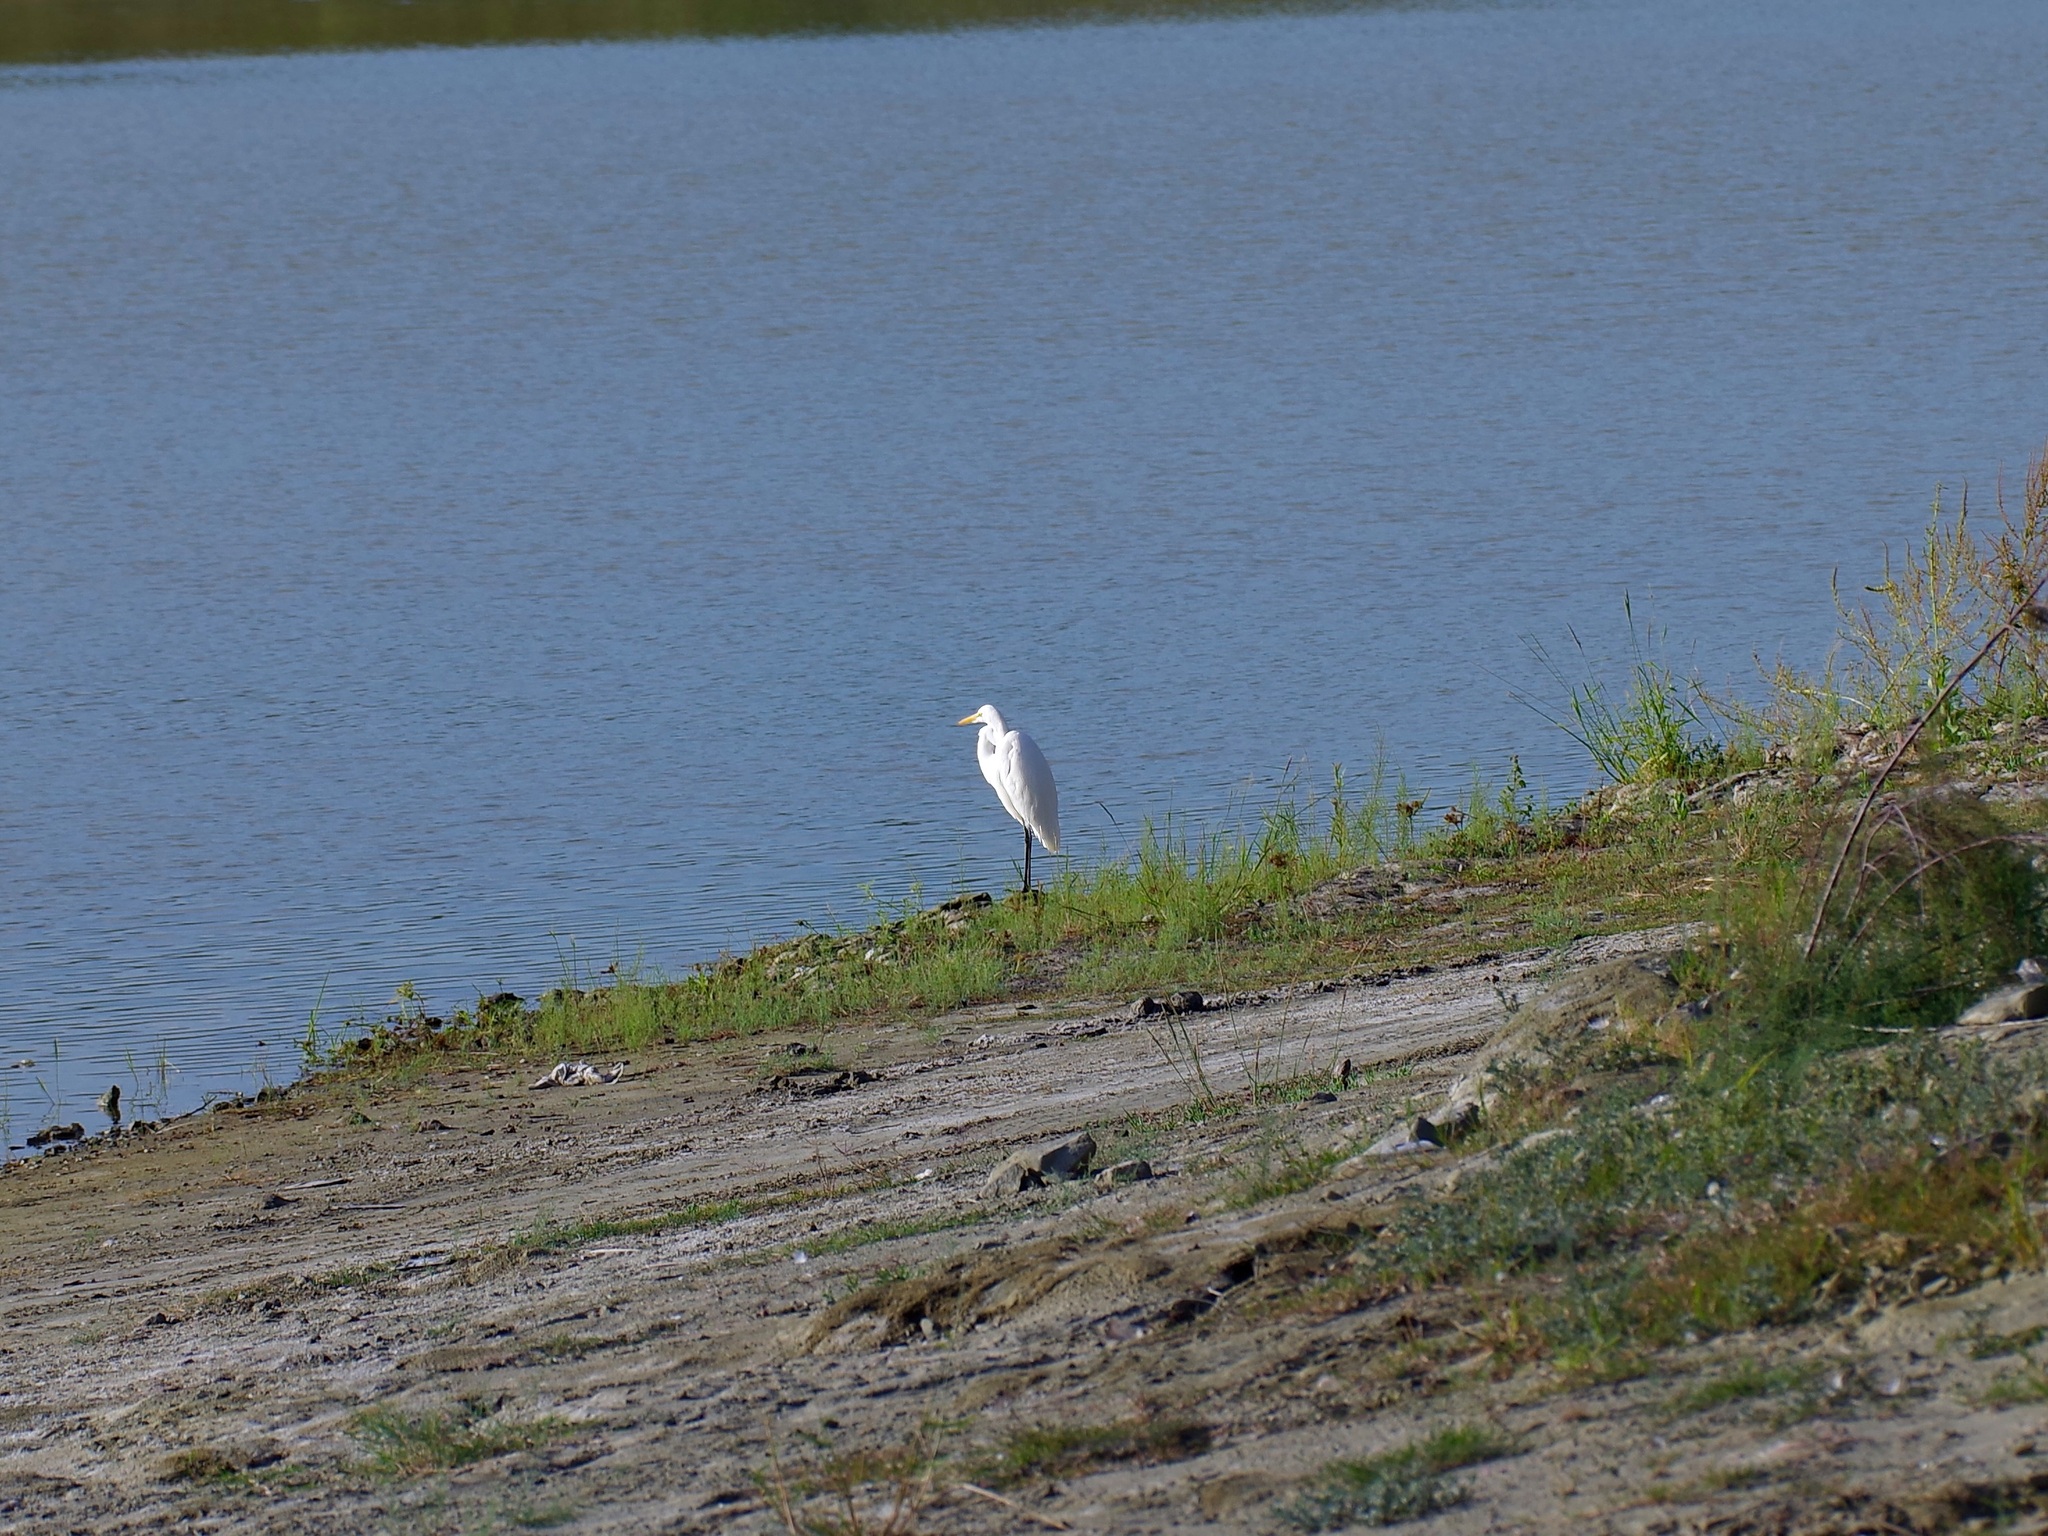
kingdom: Animalia
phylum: Chordata
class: Aves
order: Pelecaniformes
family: Ardeidae
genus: Ardea
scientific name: Ardea alba
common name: Great egret
